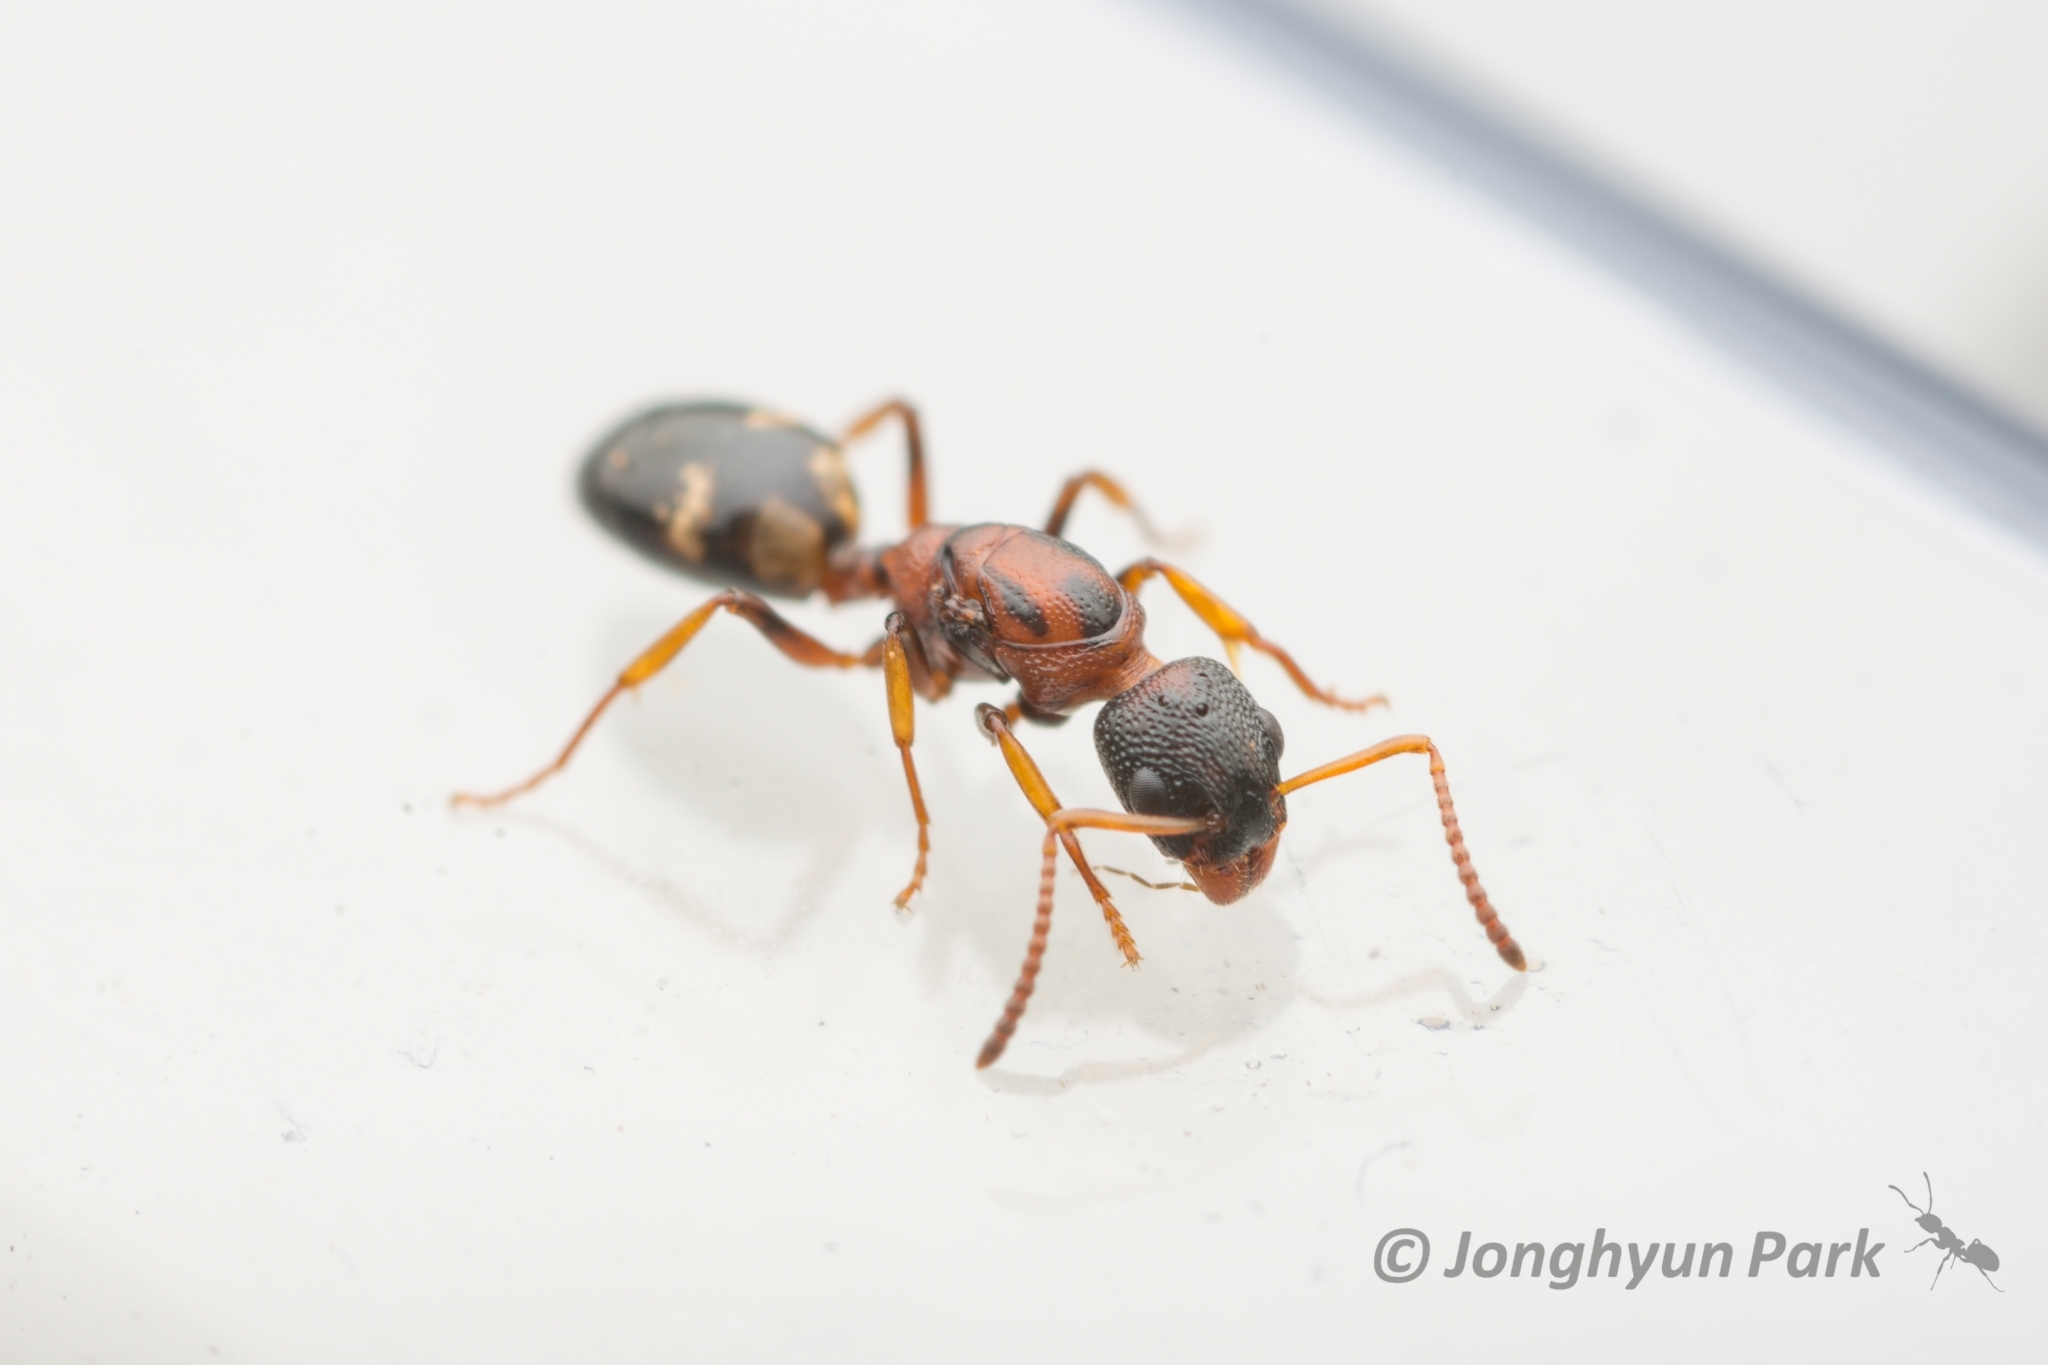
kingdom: Animalia
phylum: Arthropoda
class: Insecta
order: Hymenoptera
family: Formicidae
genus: Dolichoderus
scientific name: Dolichoderus sibiricus
